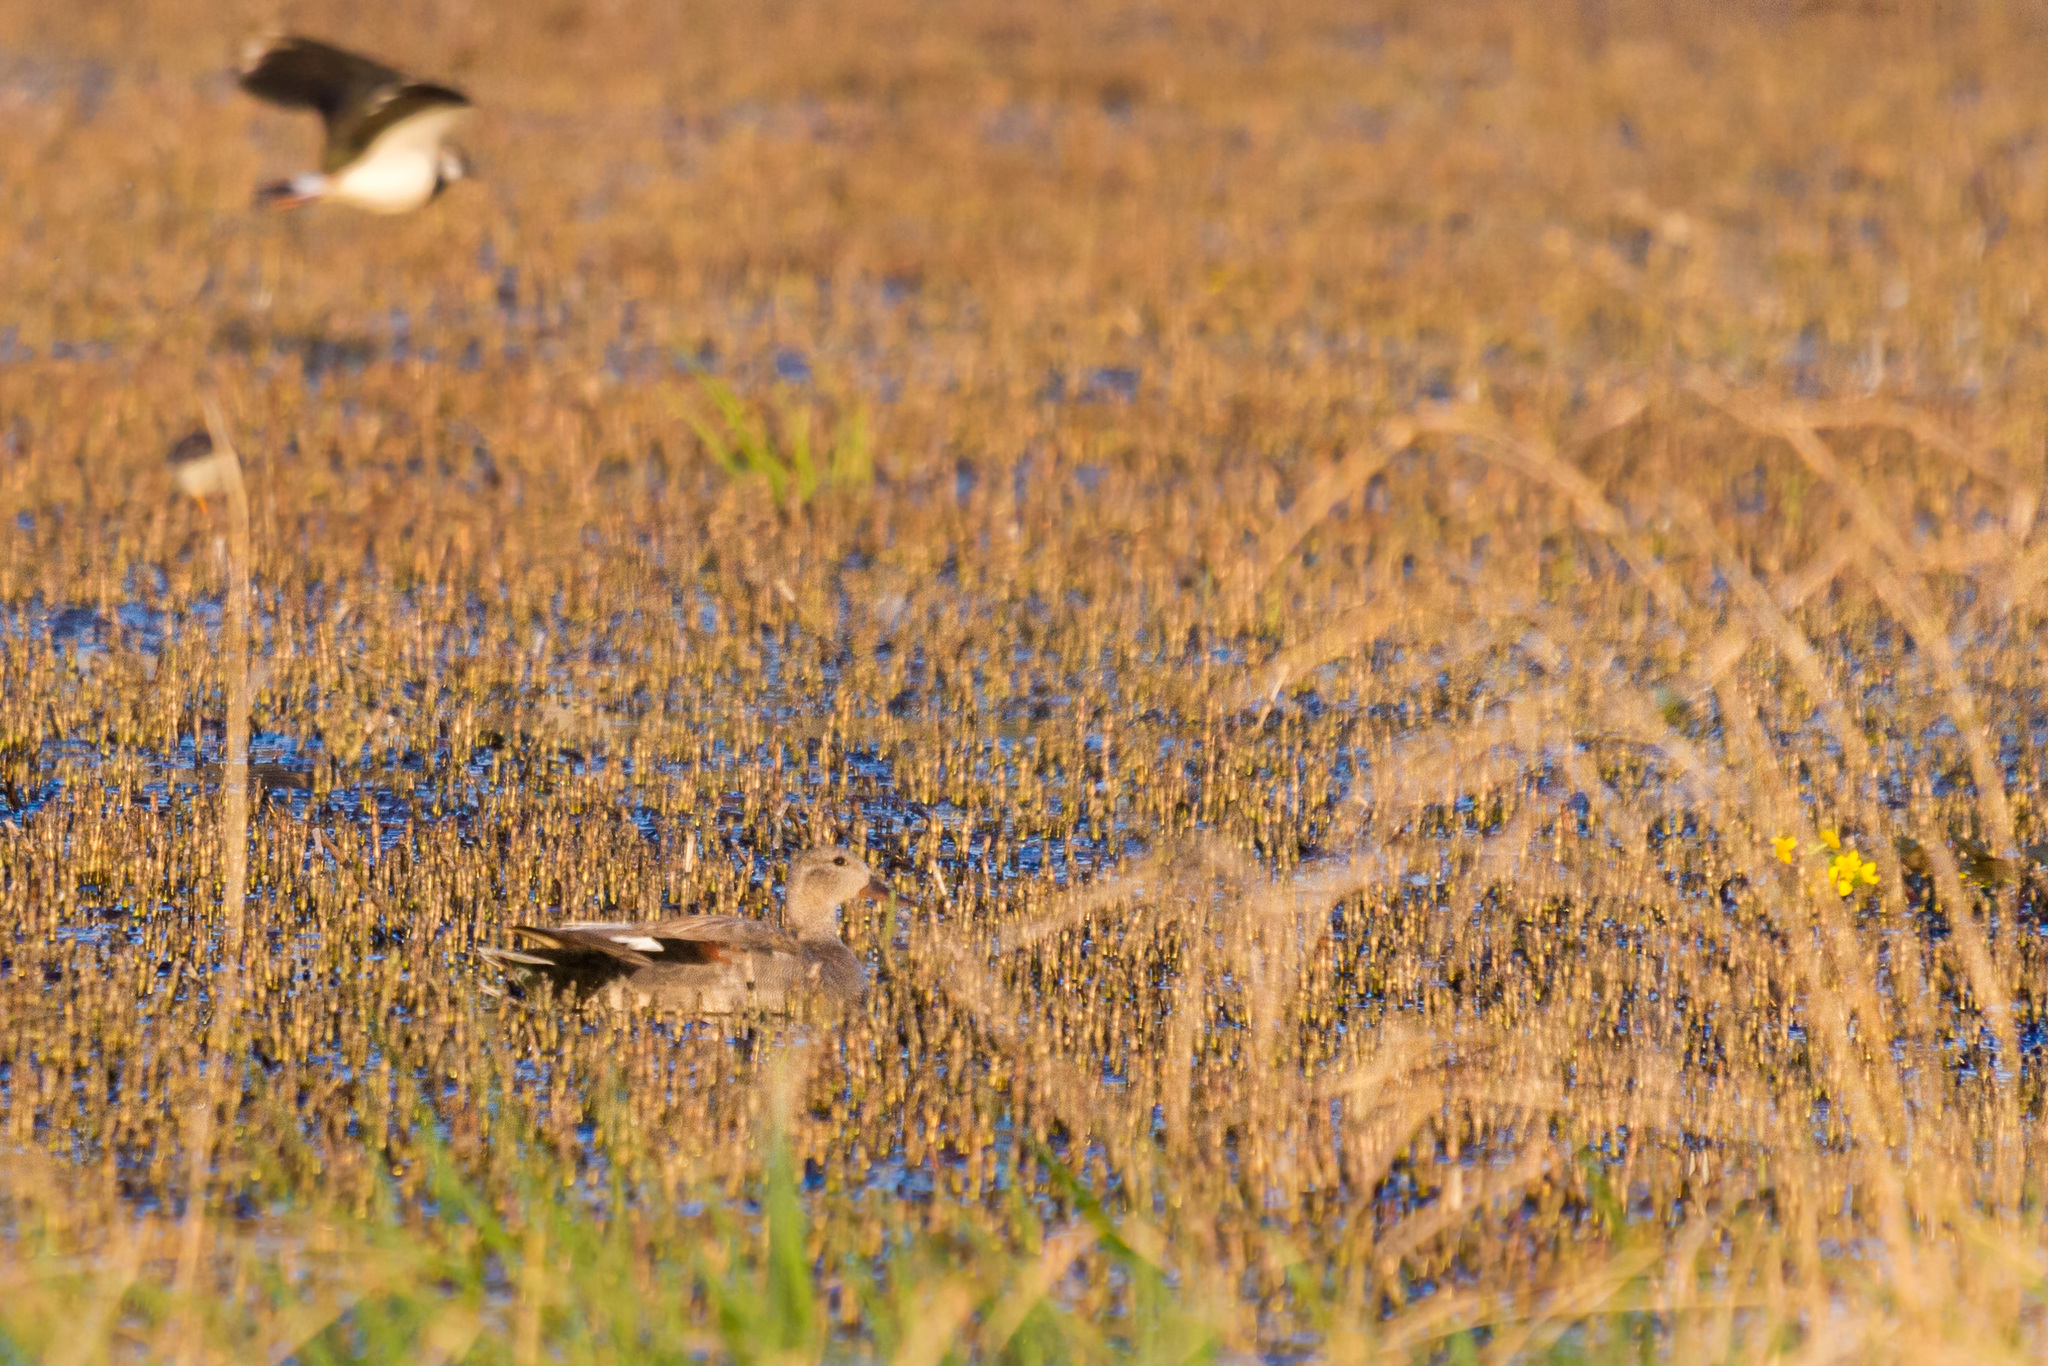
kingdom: Animalia
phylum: Chordata
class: Aves
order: Anseriformes
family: Anatidae
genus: Mareca
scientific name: Mareca strepera
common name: Gadwall
